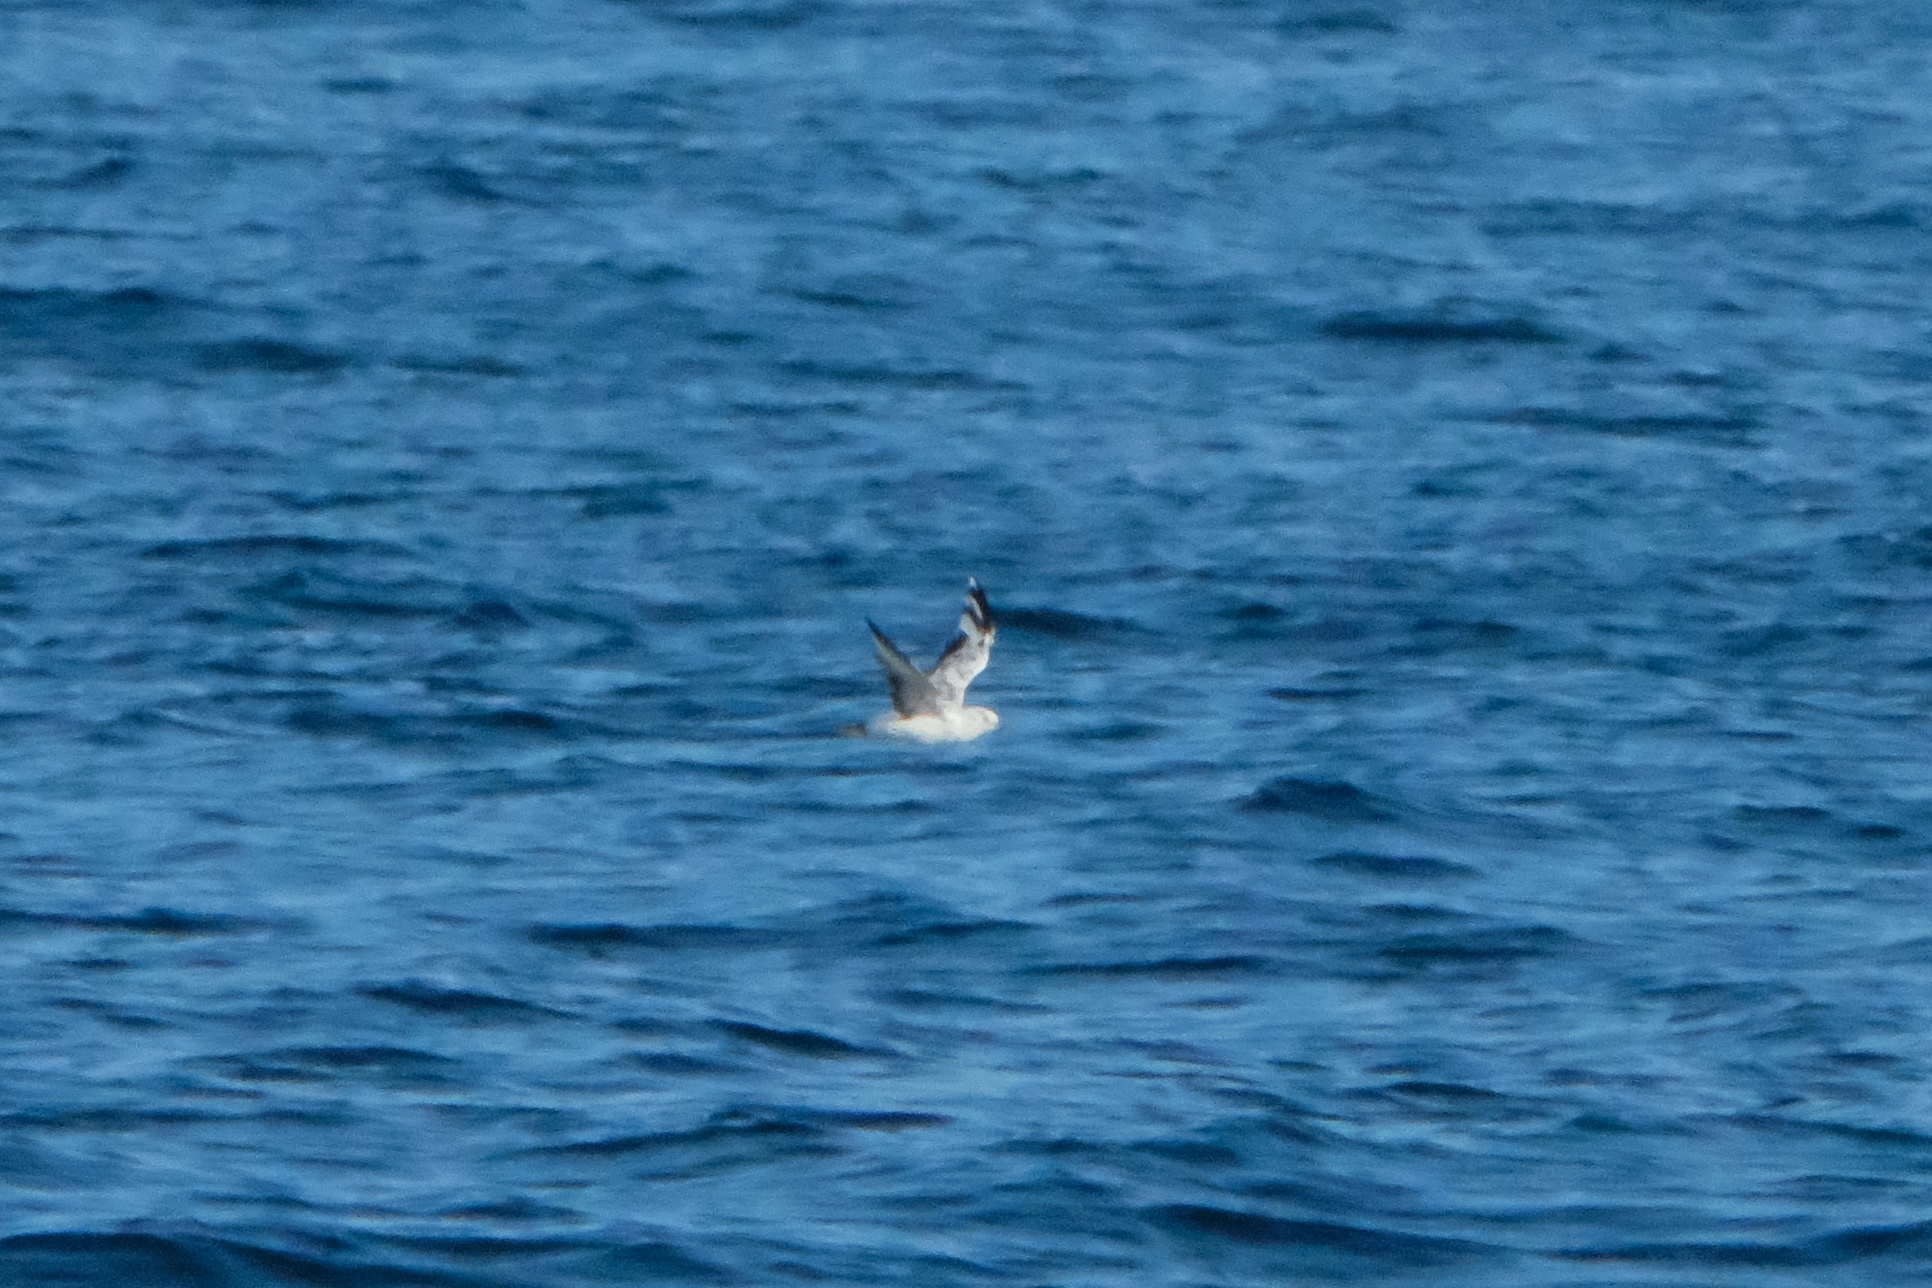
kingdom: Animalia
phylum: Chordata
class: Aves
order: Procellariiformes
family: Procellariidae
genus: Puffinus
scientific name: Puffinus opisthomelas
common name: Black-vented shearwater
